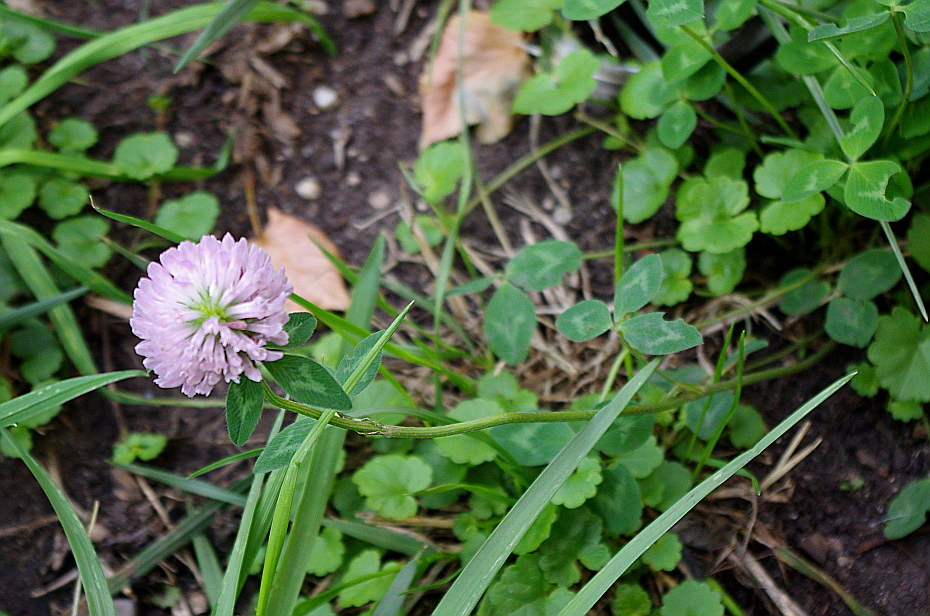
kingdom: Plantae
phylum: Tracheophyta
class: Magnoliopsida
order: Fabales
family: Fabaceae
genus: Trifolium
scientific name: Trifolium pratense
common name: Red clover
